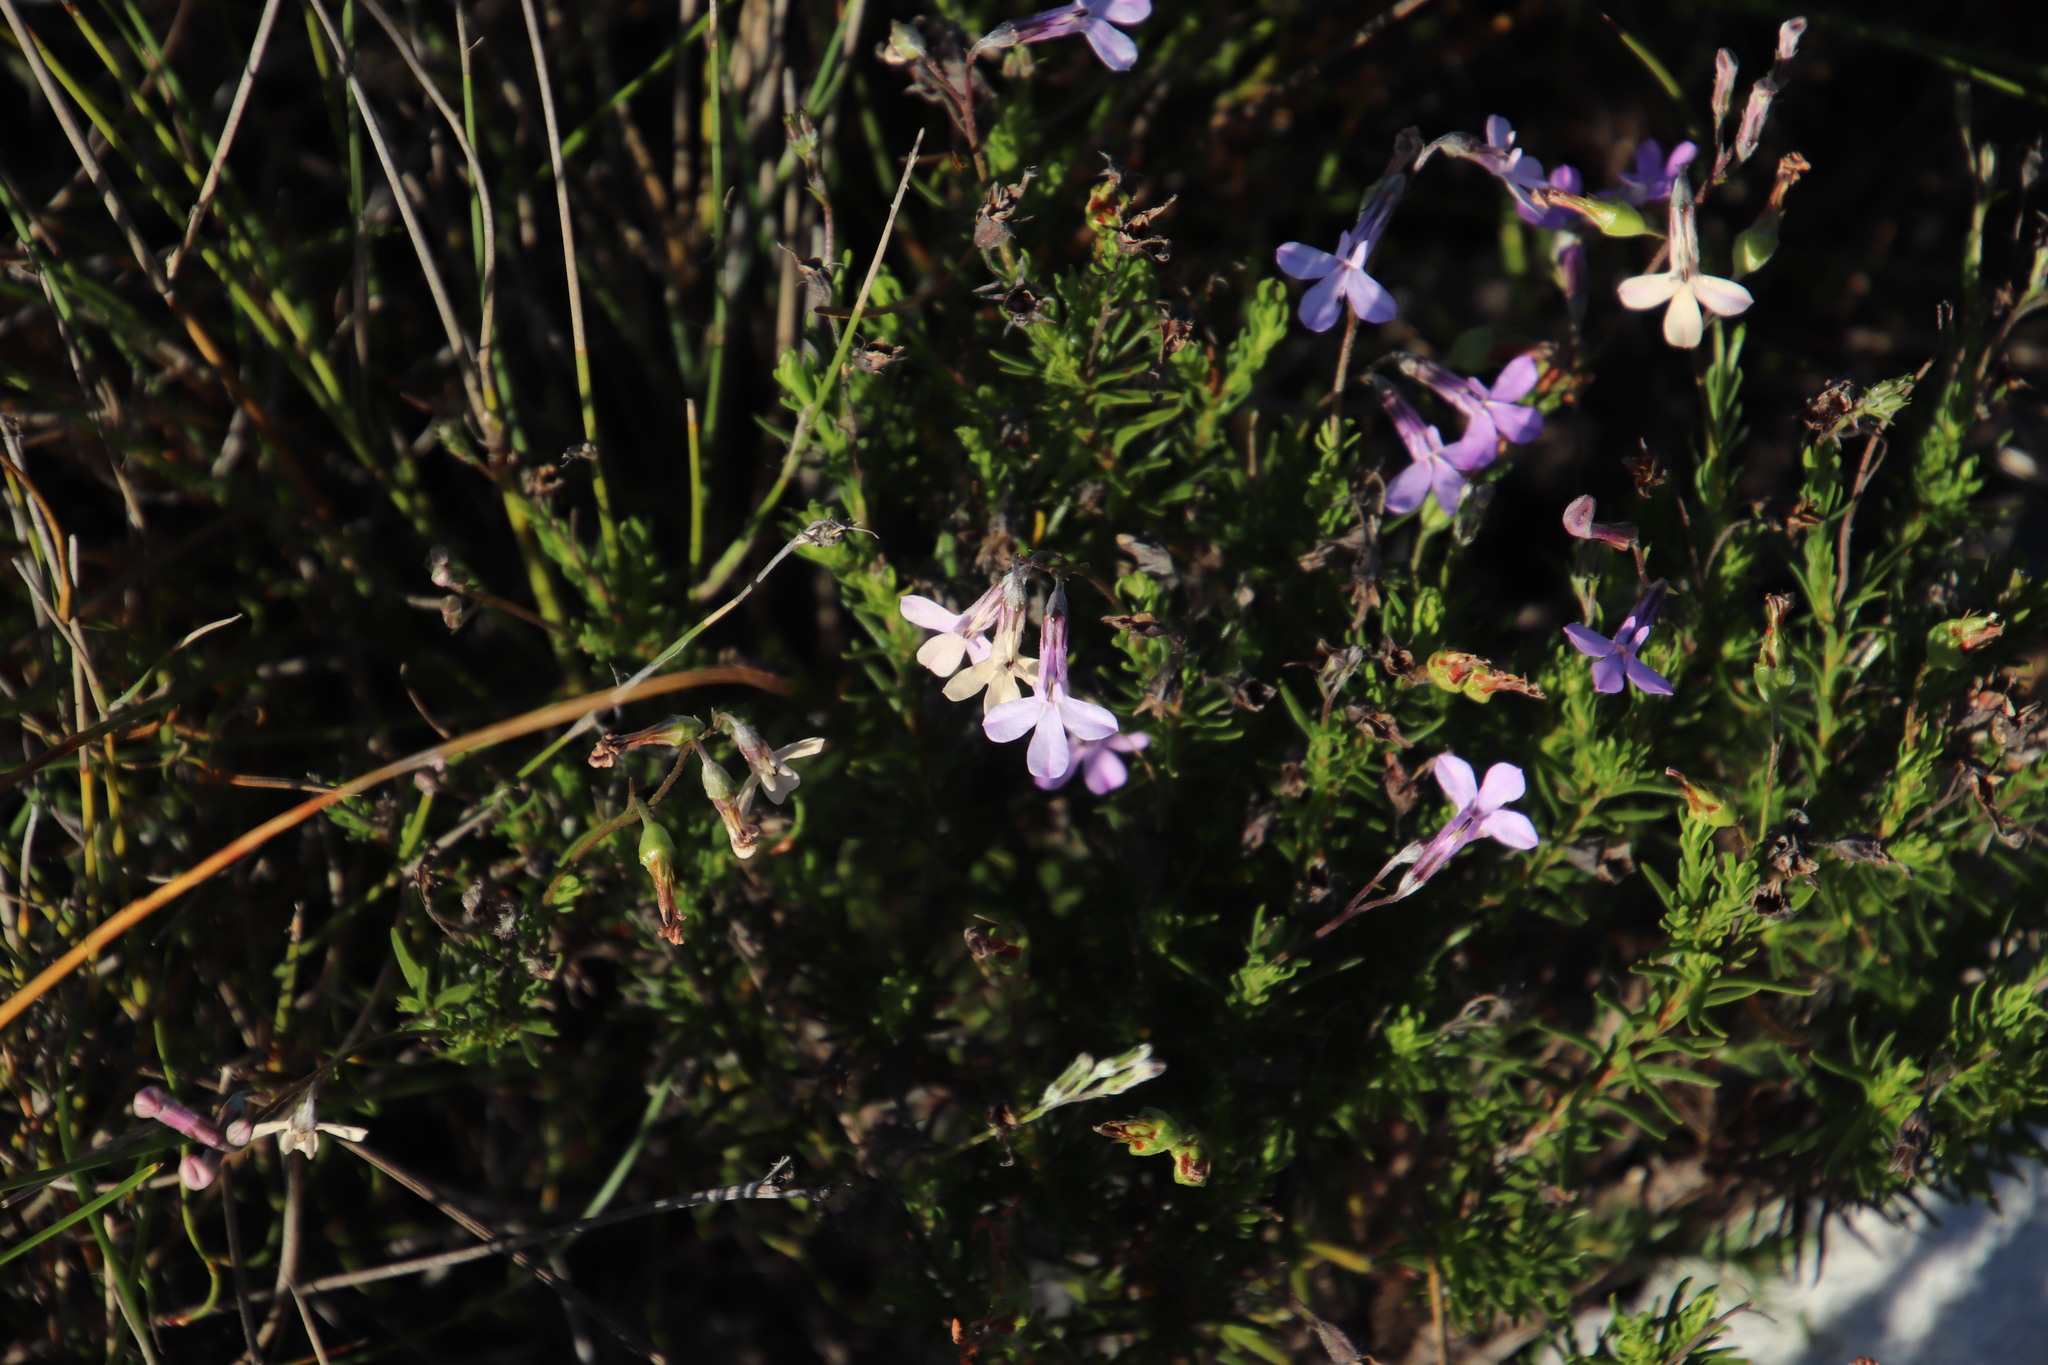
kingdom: Plantae
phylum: Tracheophyta
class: Magnoliopsida
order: Asterales
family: Campanulaceae
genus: Lobelia
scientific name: Lobelia pinifolia
